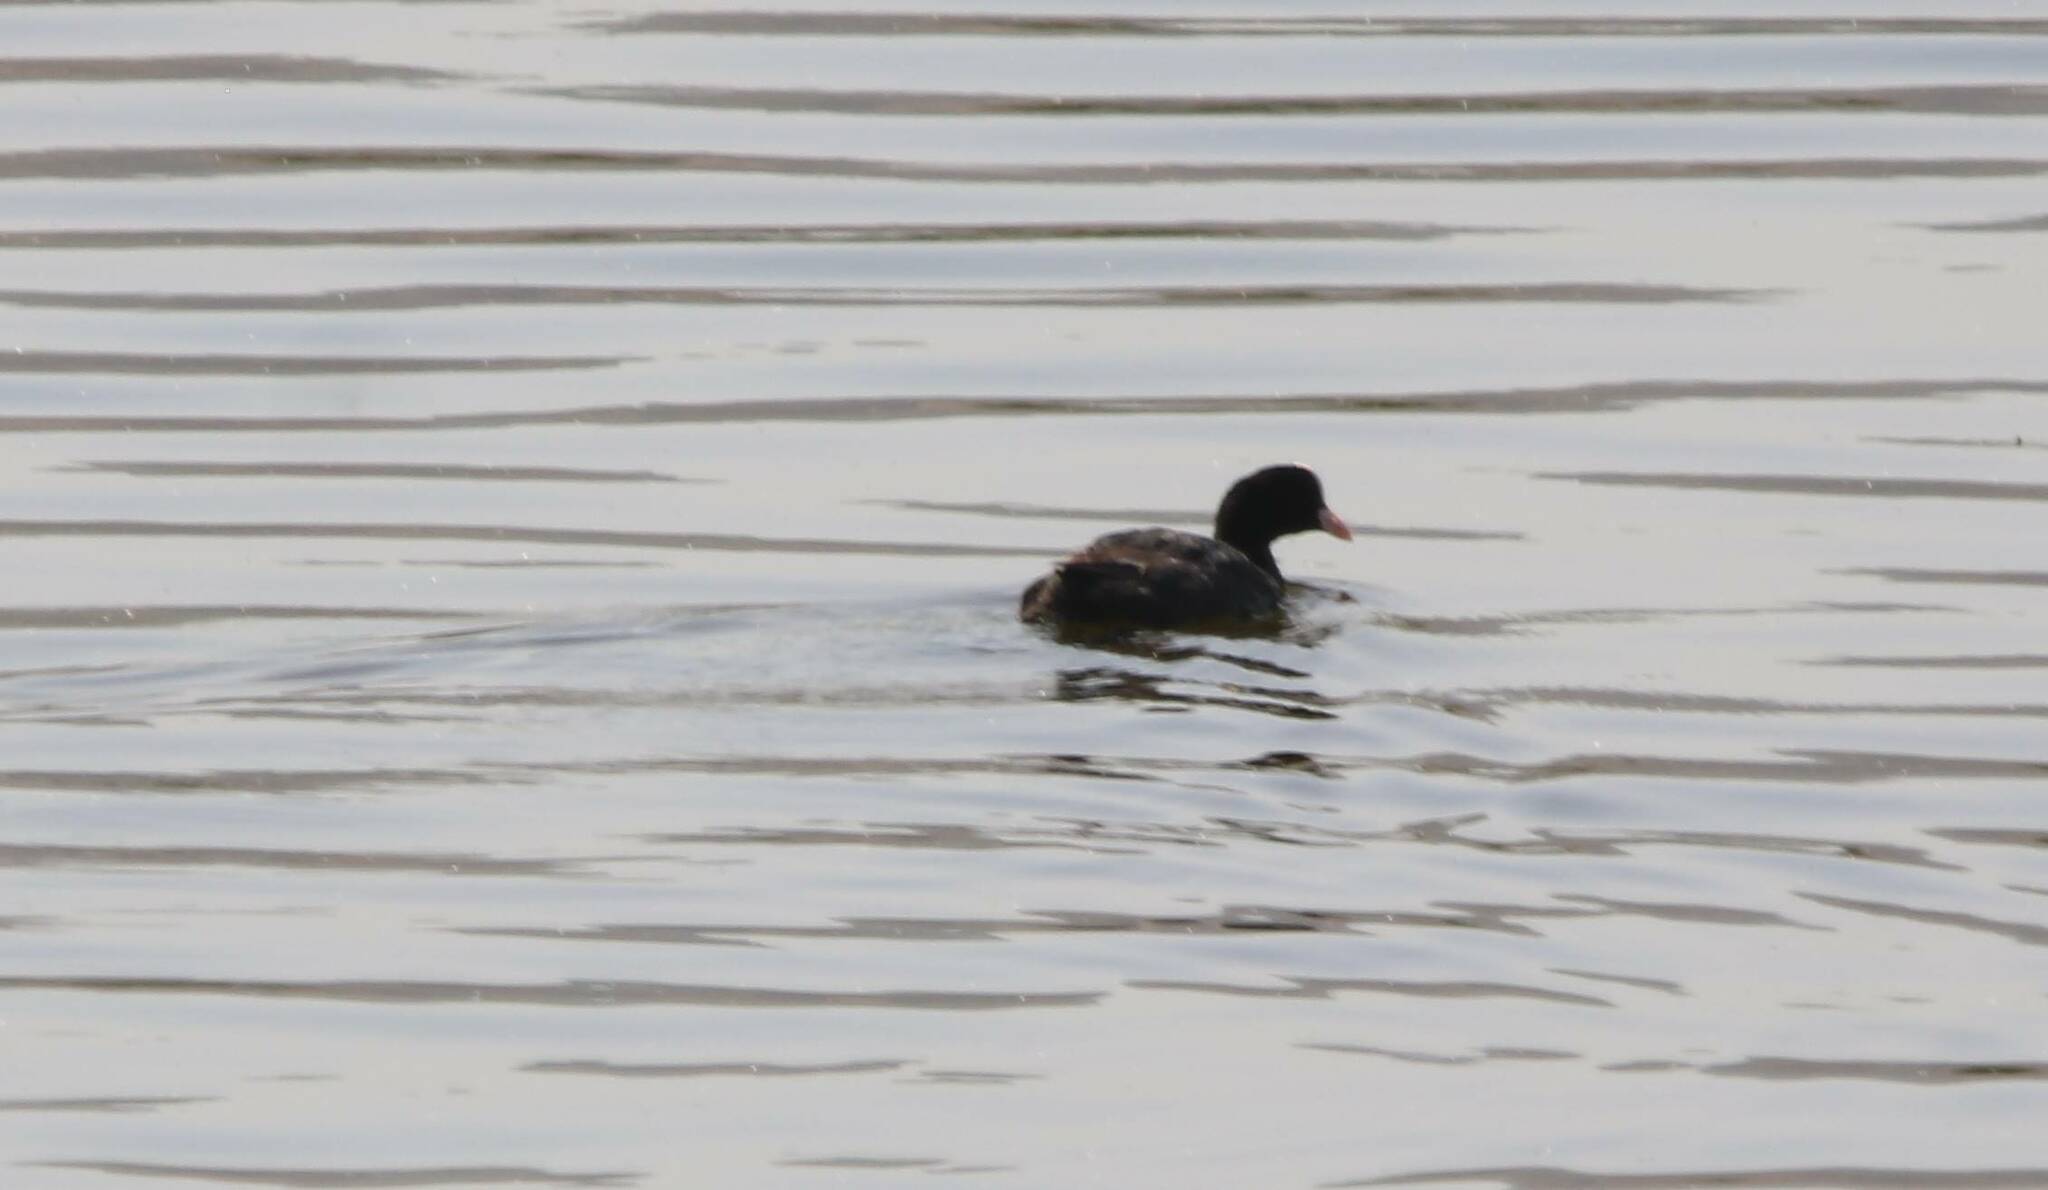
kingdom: Animalia
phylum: Chordata
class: Aves
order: Gruiformes
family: Rallidae
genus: Fulica
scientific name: Fulica atra
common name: Eurasian coot
